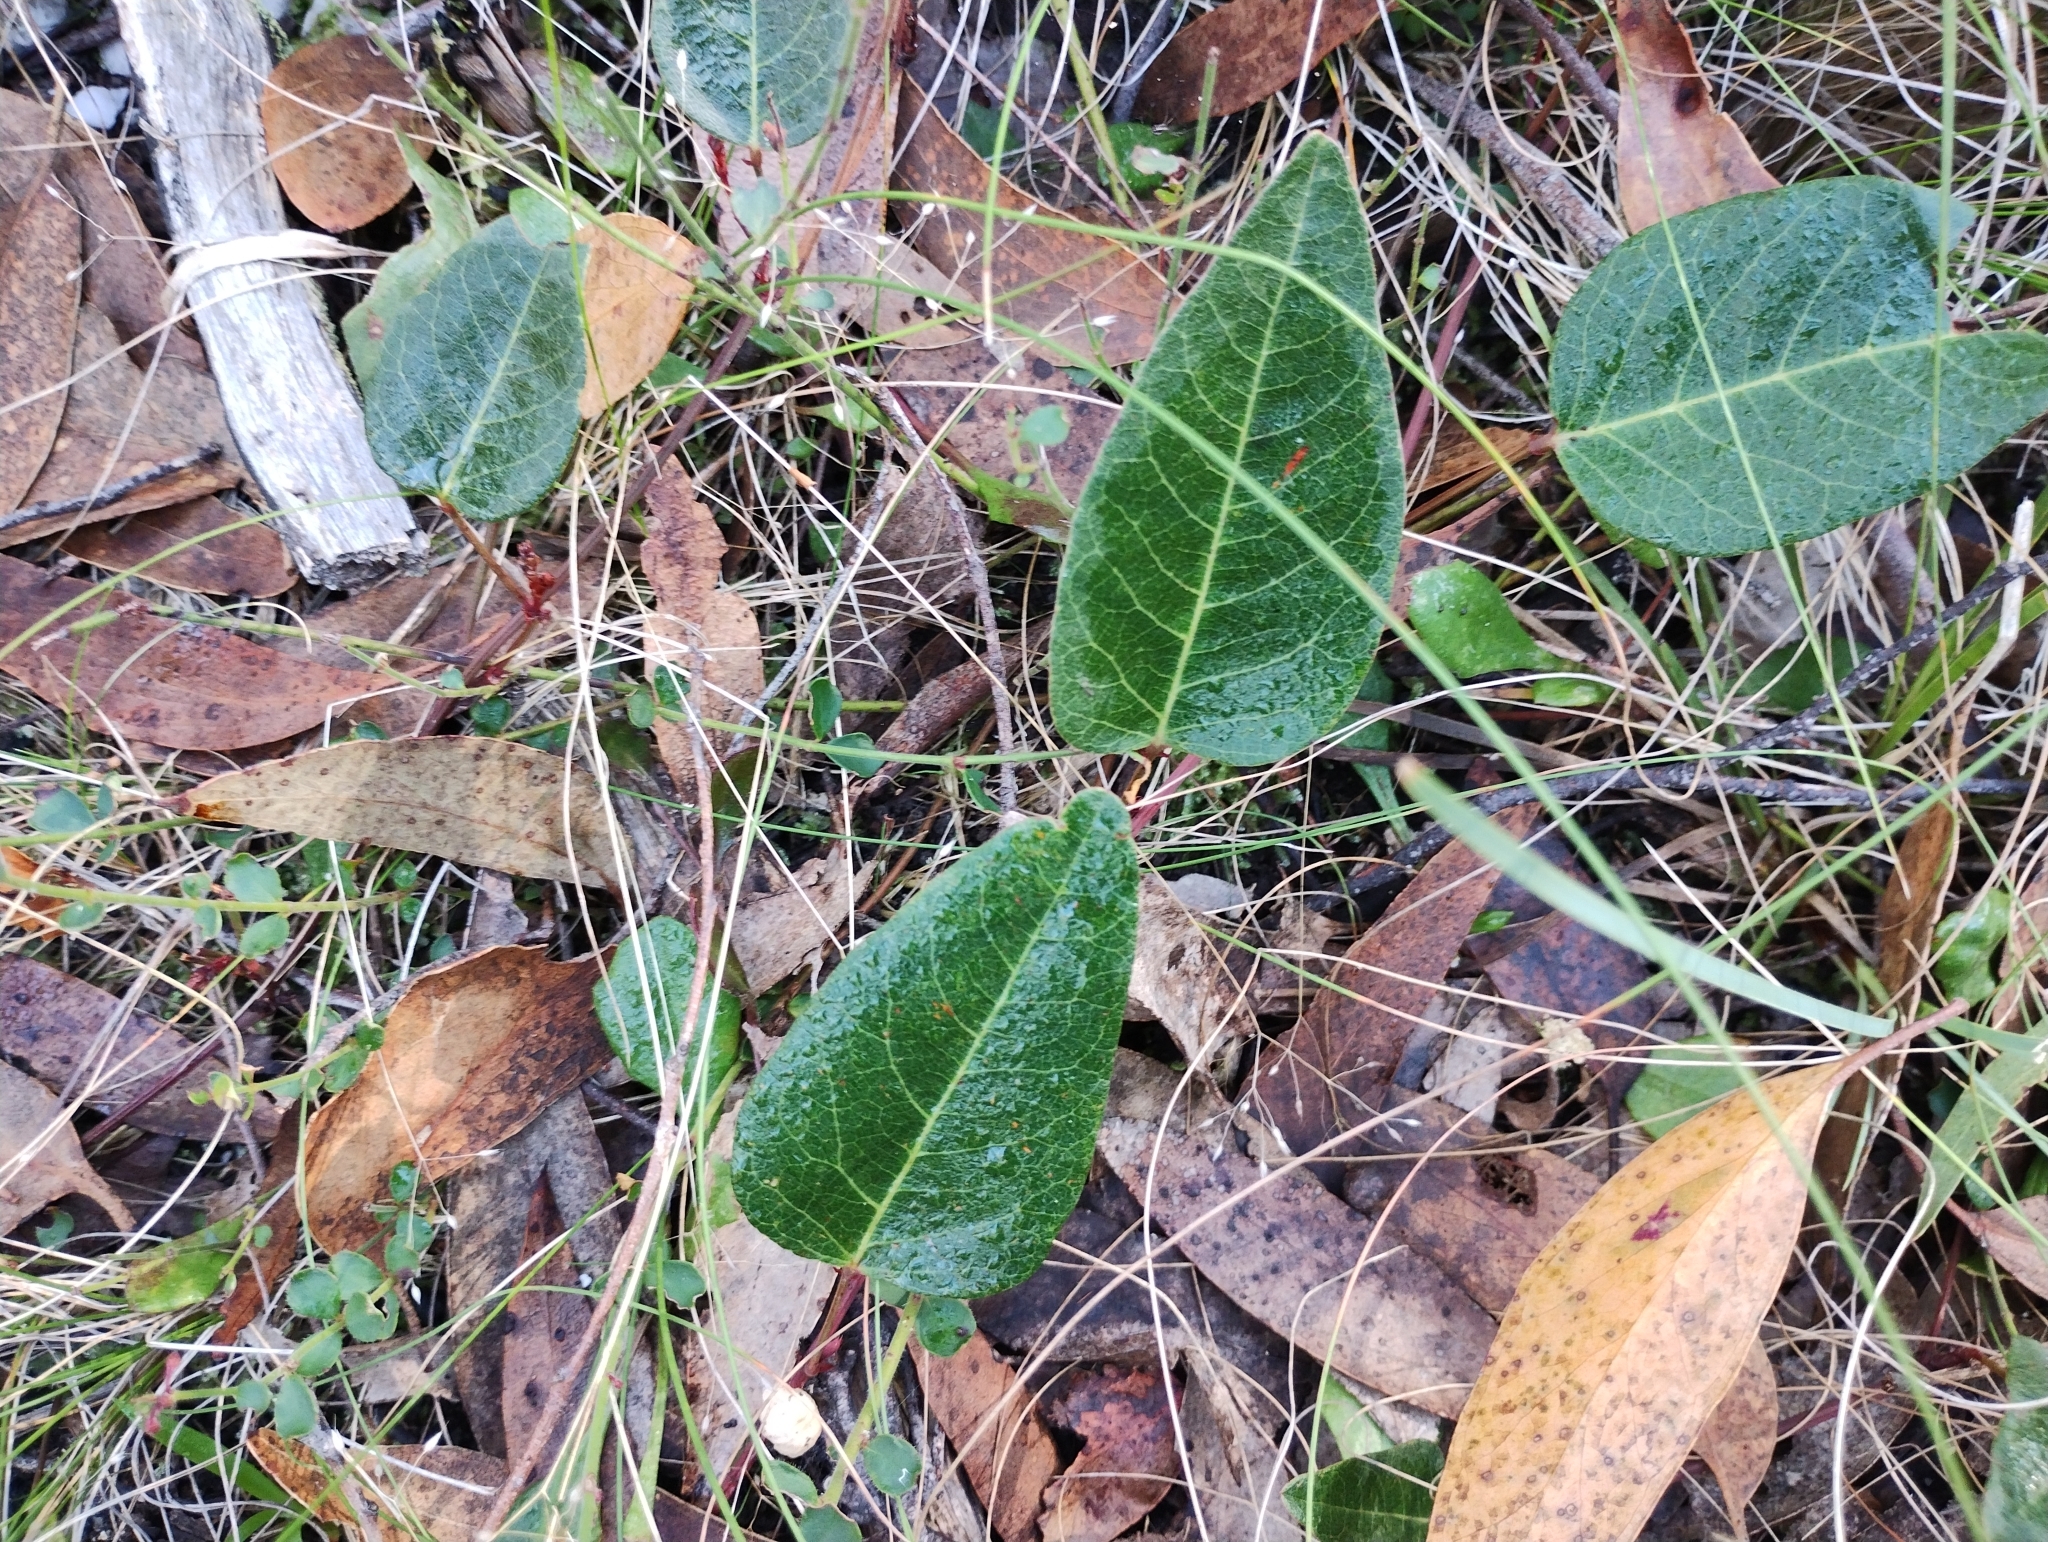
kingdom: Plantae
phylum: Tracheophyta
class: Magnoliopsida
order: Fabales
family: Fabaceae
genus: Hardenbergia
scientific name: Hardenbergia violacea
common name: Coral-pea
